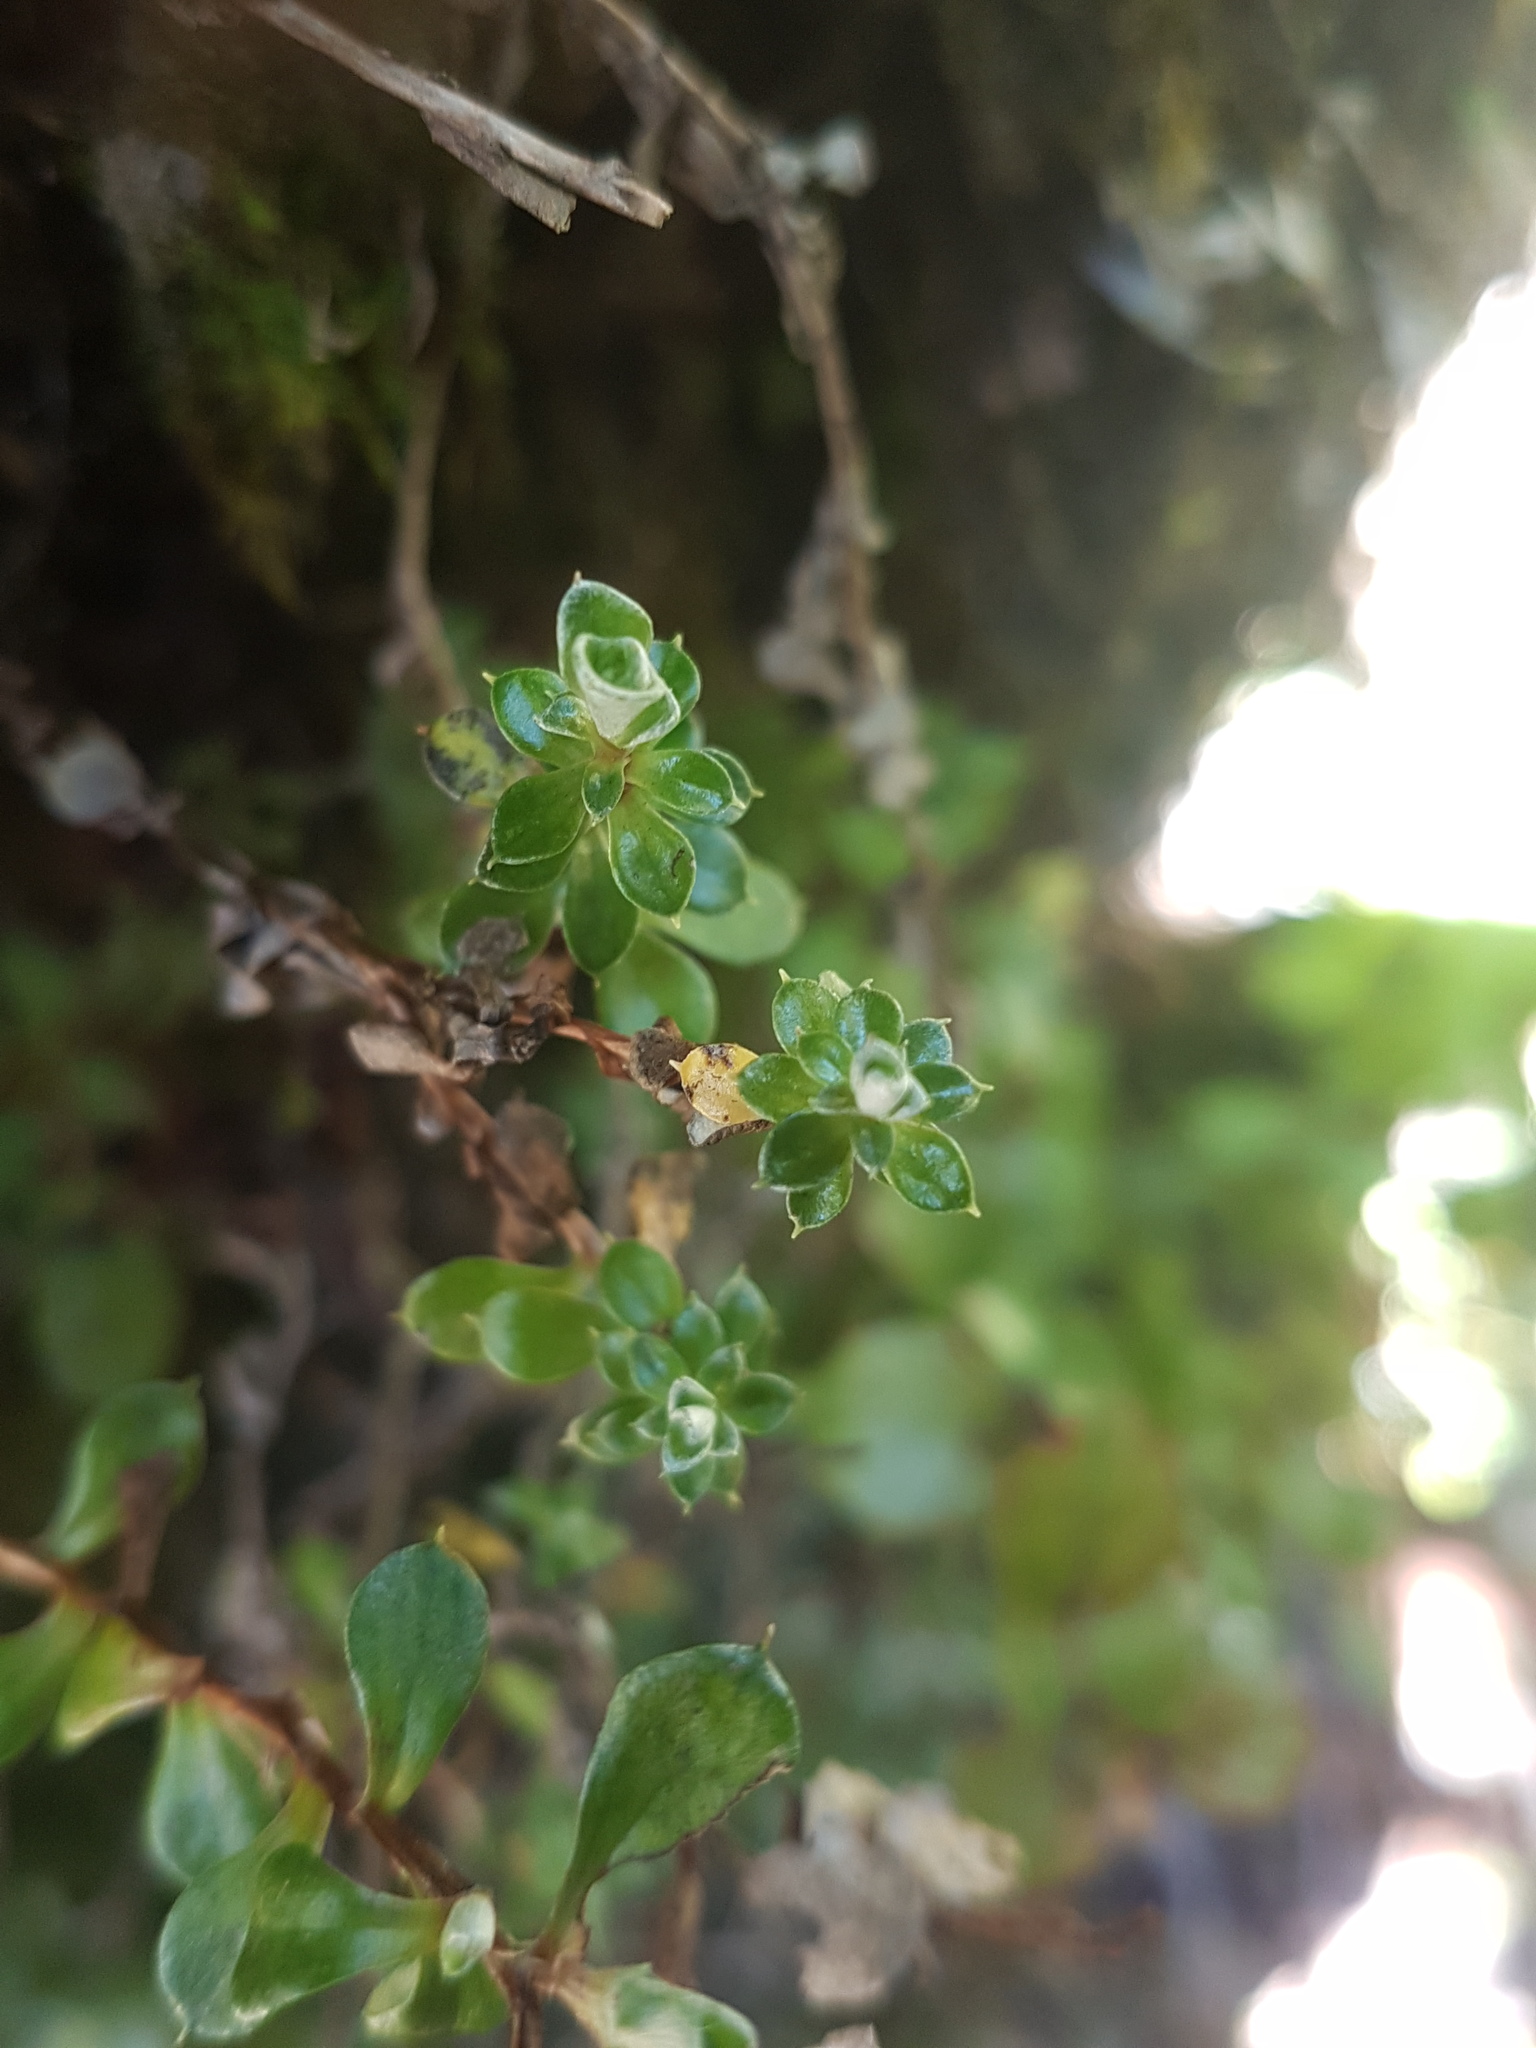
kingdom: Plantae
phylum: Tracheophyta
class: Magnoliopsida
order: Asterales
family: Asteraceae
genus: Anaphalioides
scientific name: Anaphalioides bellidioides
